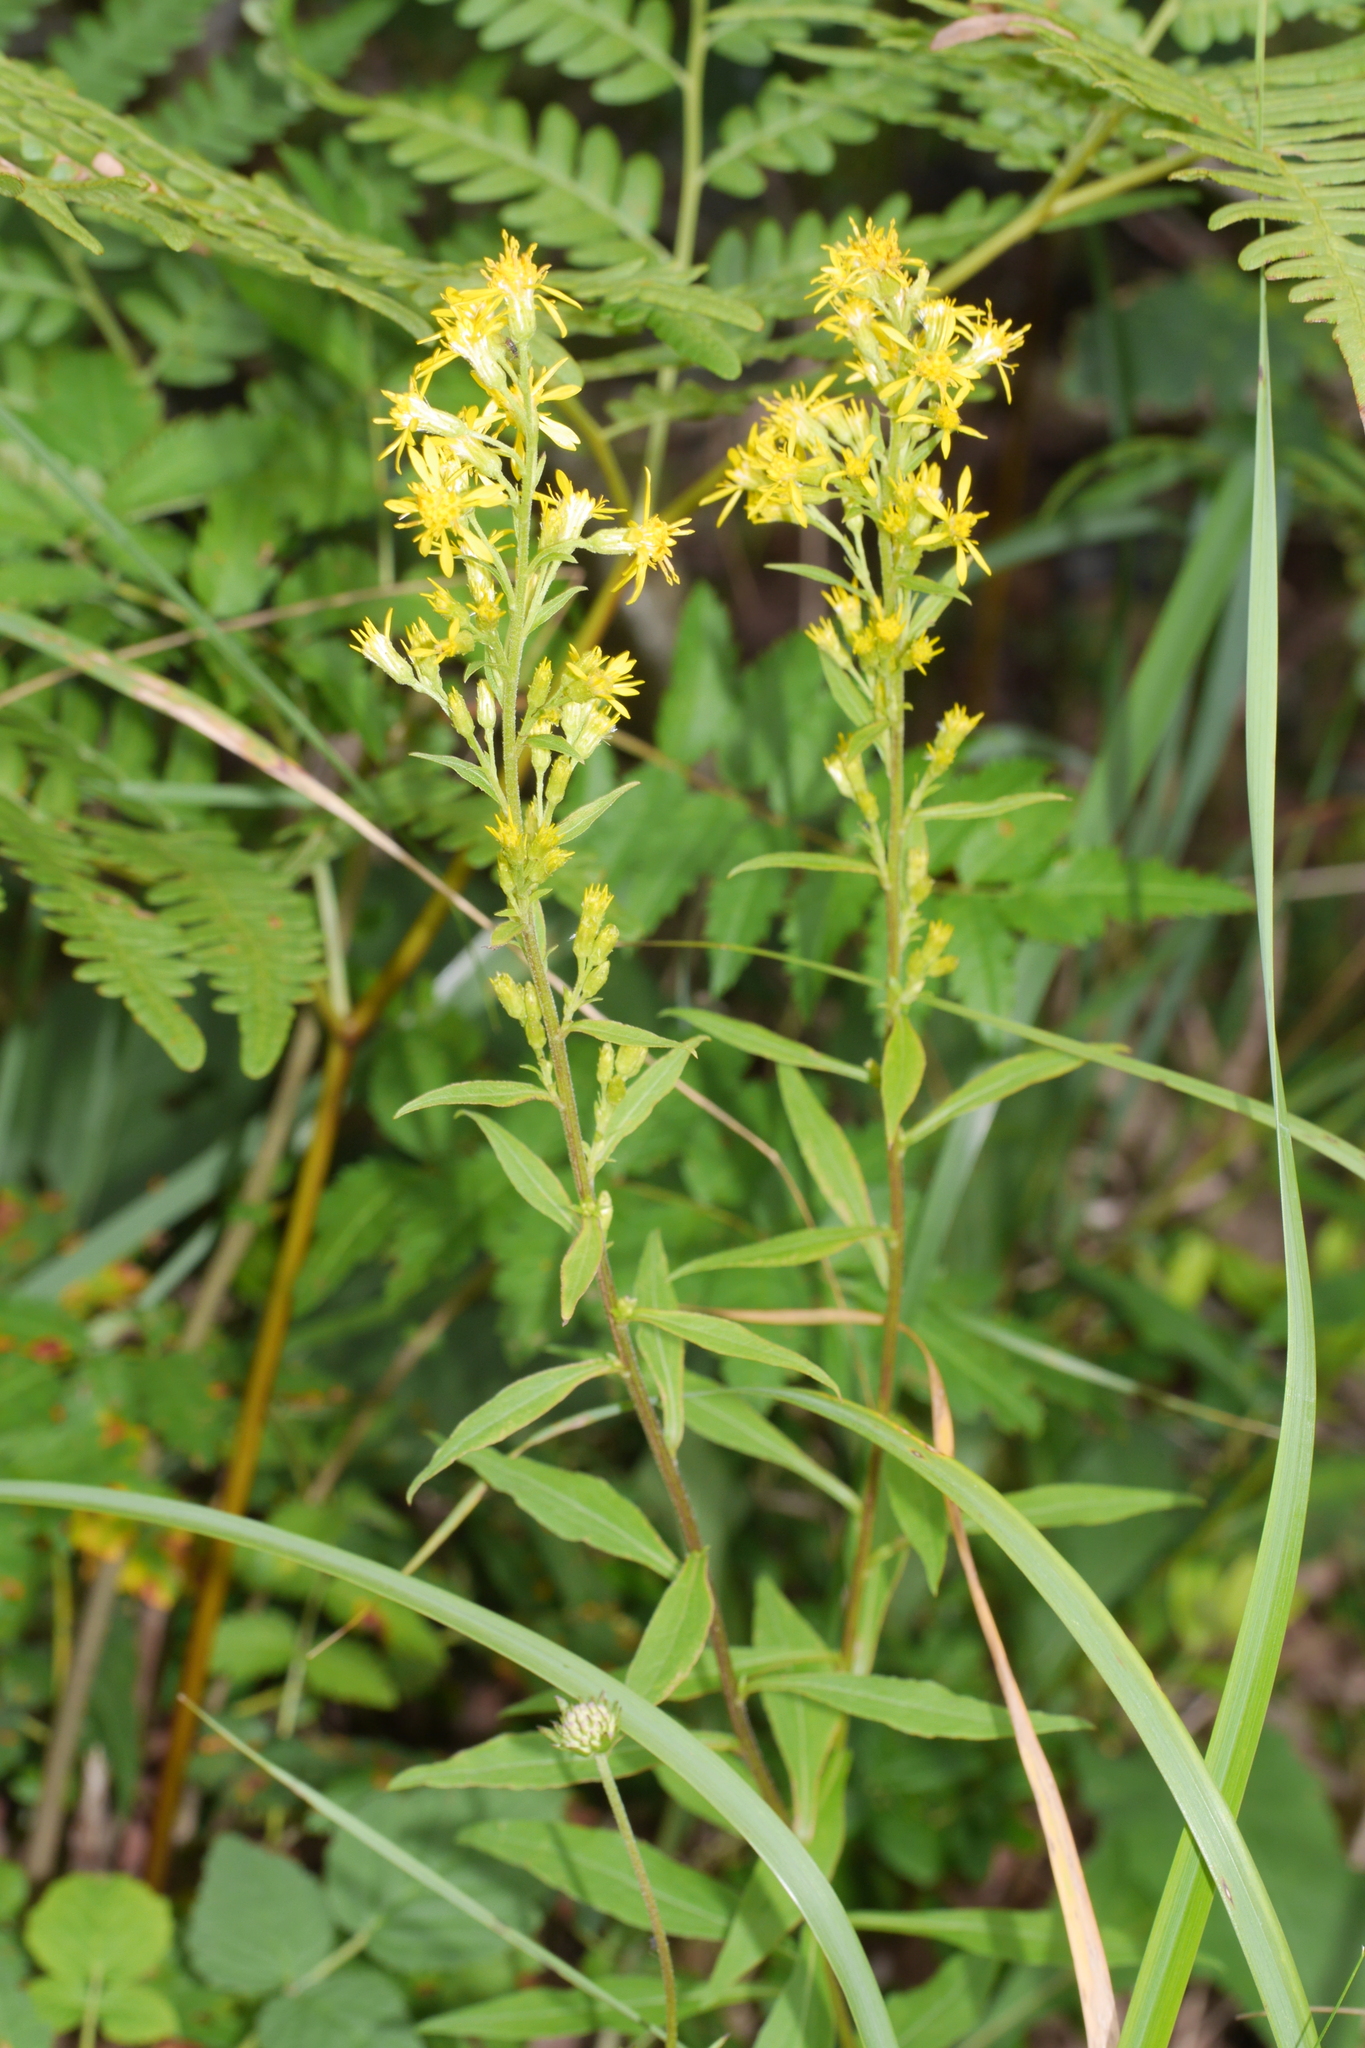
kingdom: Plantae
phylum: Tracheophyta
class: Magnoliopsida
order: Asterales
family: Asteraceae
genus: Solidago
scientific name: Solidago virgaurea
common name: Goldenrod
